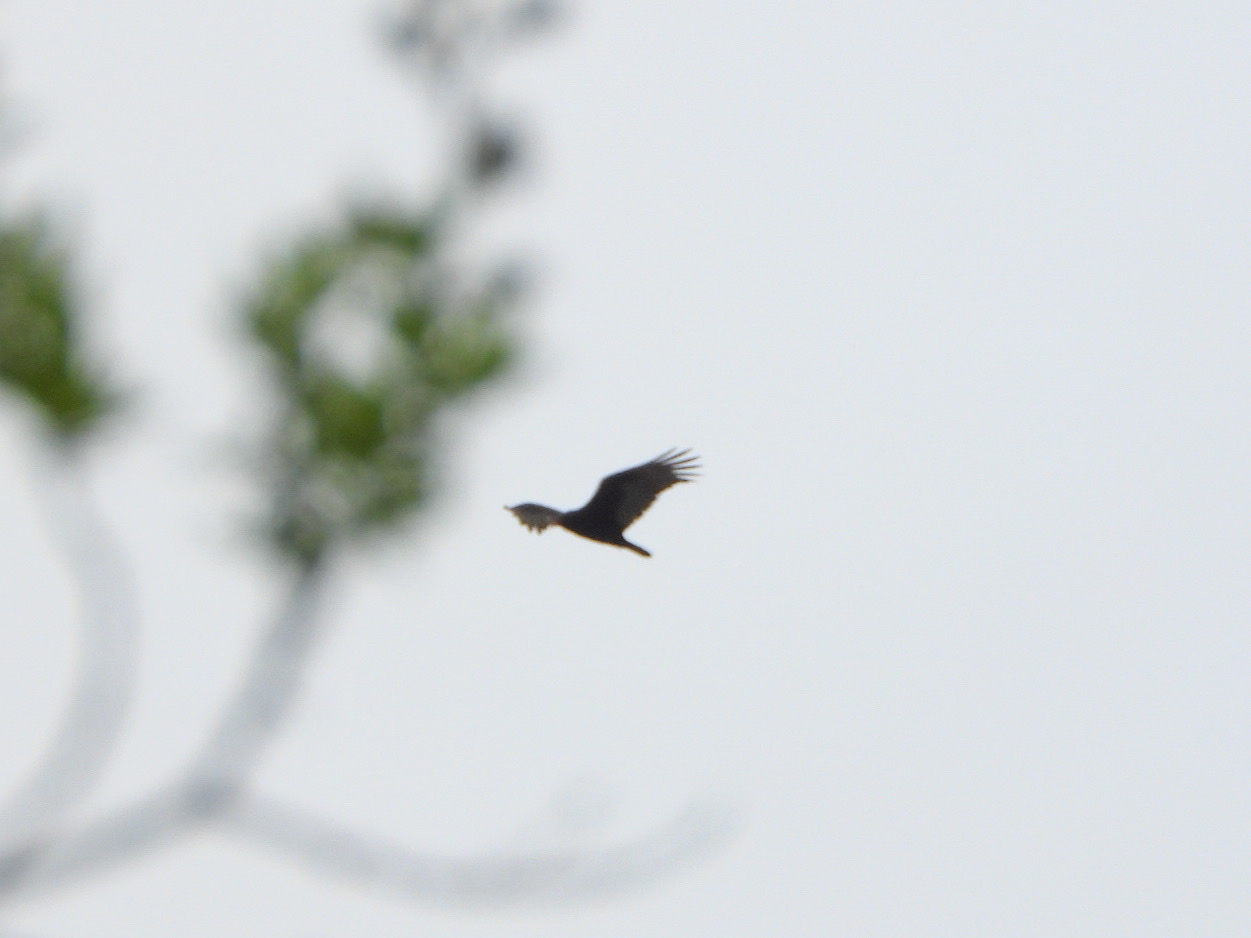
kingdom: Animalia
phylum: Chordata
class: Aves
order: Accipitriformes
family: Cathartidae
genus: Cathartes
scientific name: Cathartes aura
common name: Turkey vulture
